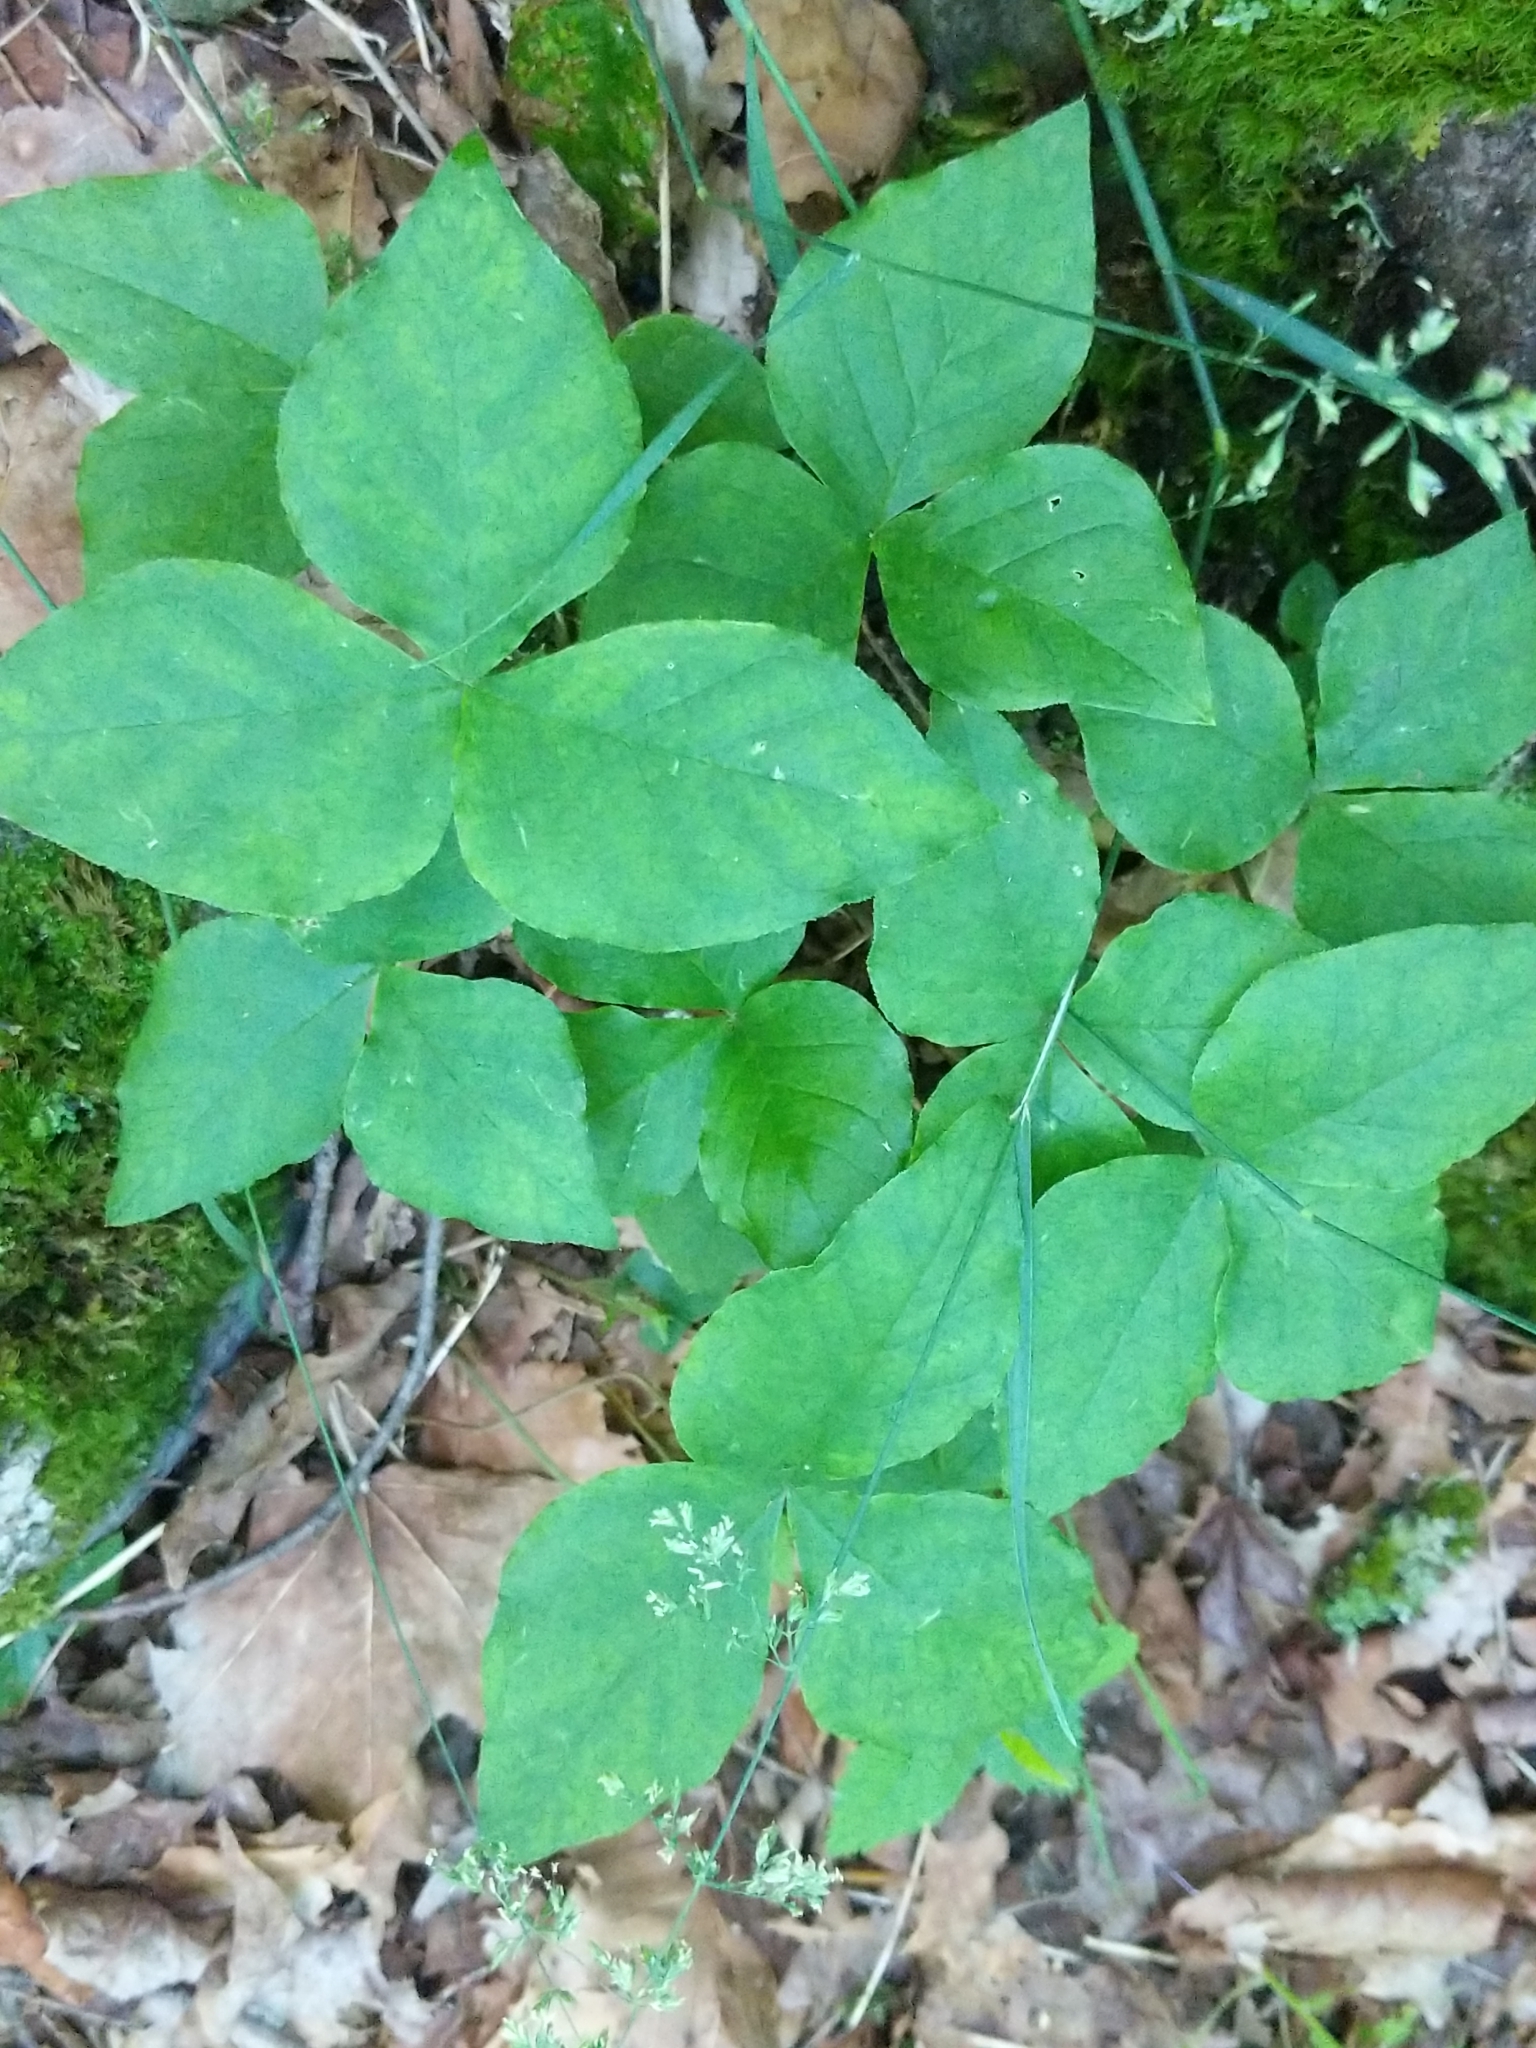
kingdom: Plantae
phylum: Tracheophyta
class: Liliopsida
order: Alismatales
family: Araceae
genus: Arisaema
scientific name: Arisaema triphyllum
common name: Jack-in-the-pulpit
